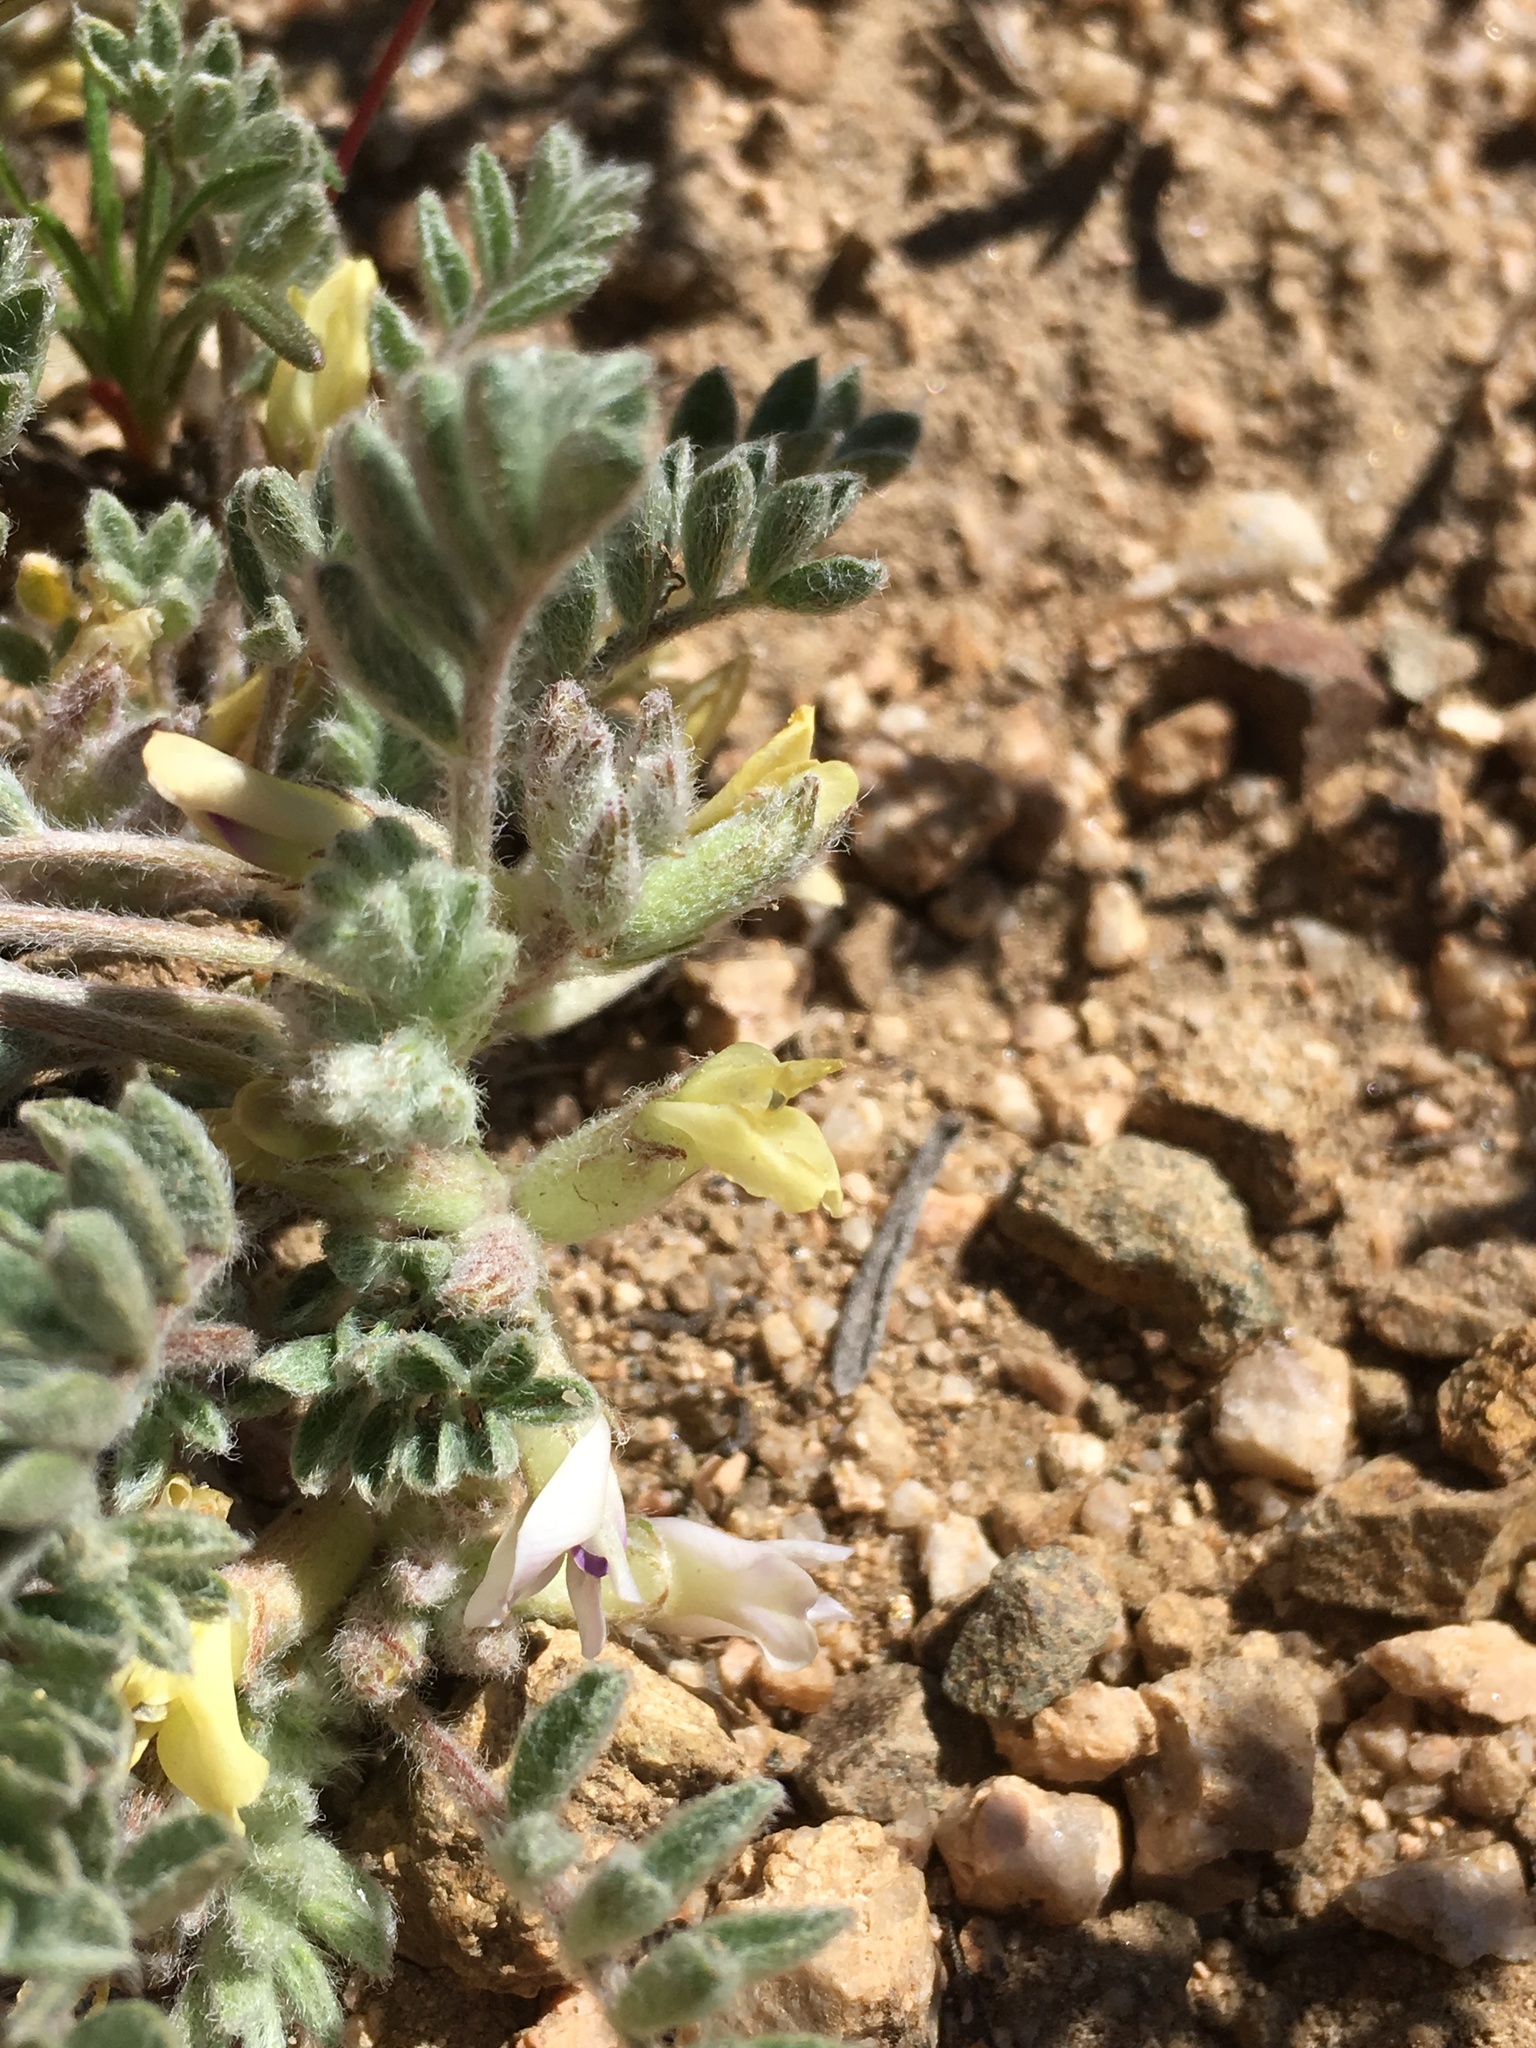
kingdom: Plantae
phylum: Tracheophyta
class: Magnoliopsida
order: Fabales
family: Fabaceae
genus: Astragalus
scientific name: Astragalus subvestitus
